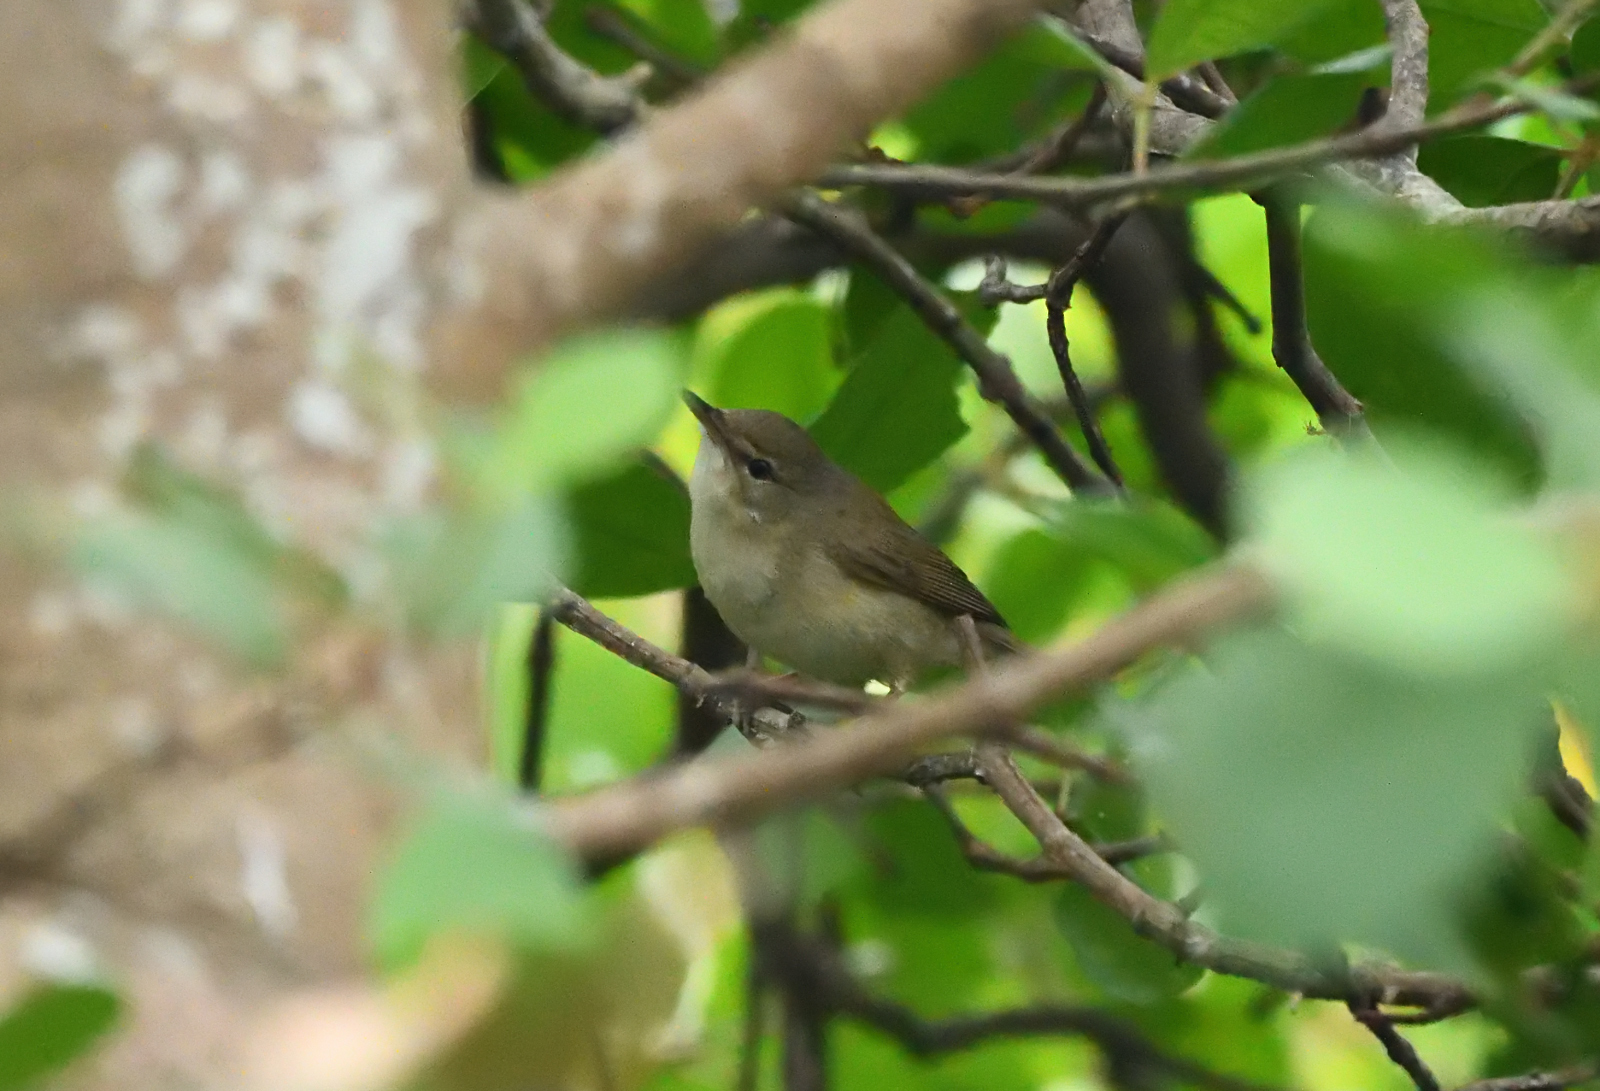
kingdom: Animalia
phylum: Chordata
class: Aves
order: Passeriformes
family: Acrocephalidae
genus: Acrocephalus
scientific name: Acrocephalus dumetorum
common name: Blyth's reed warbler
